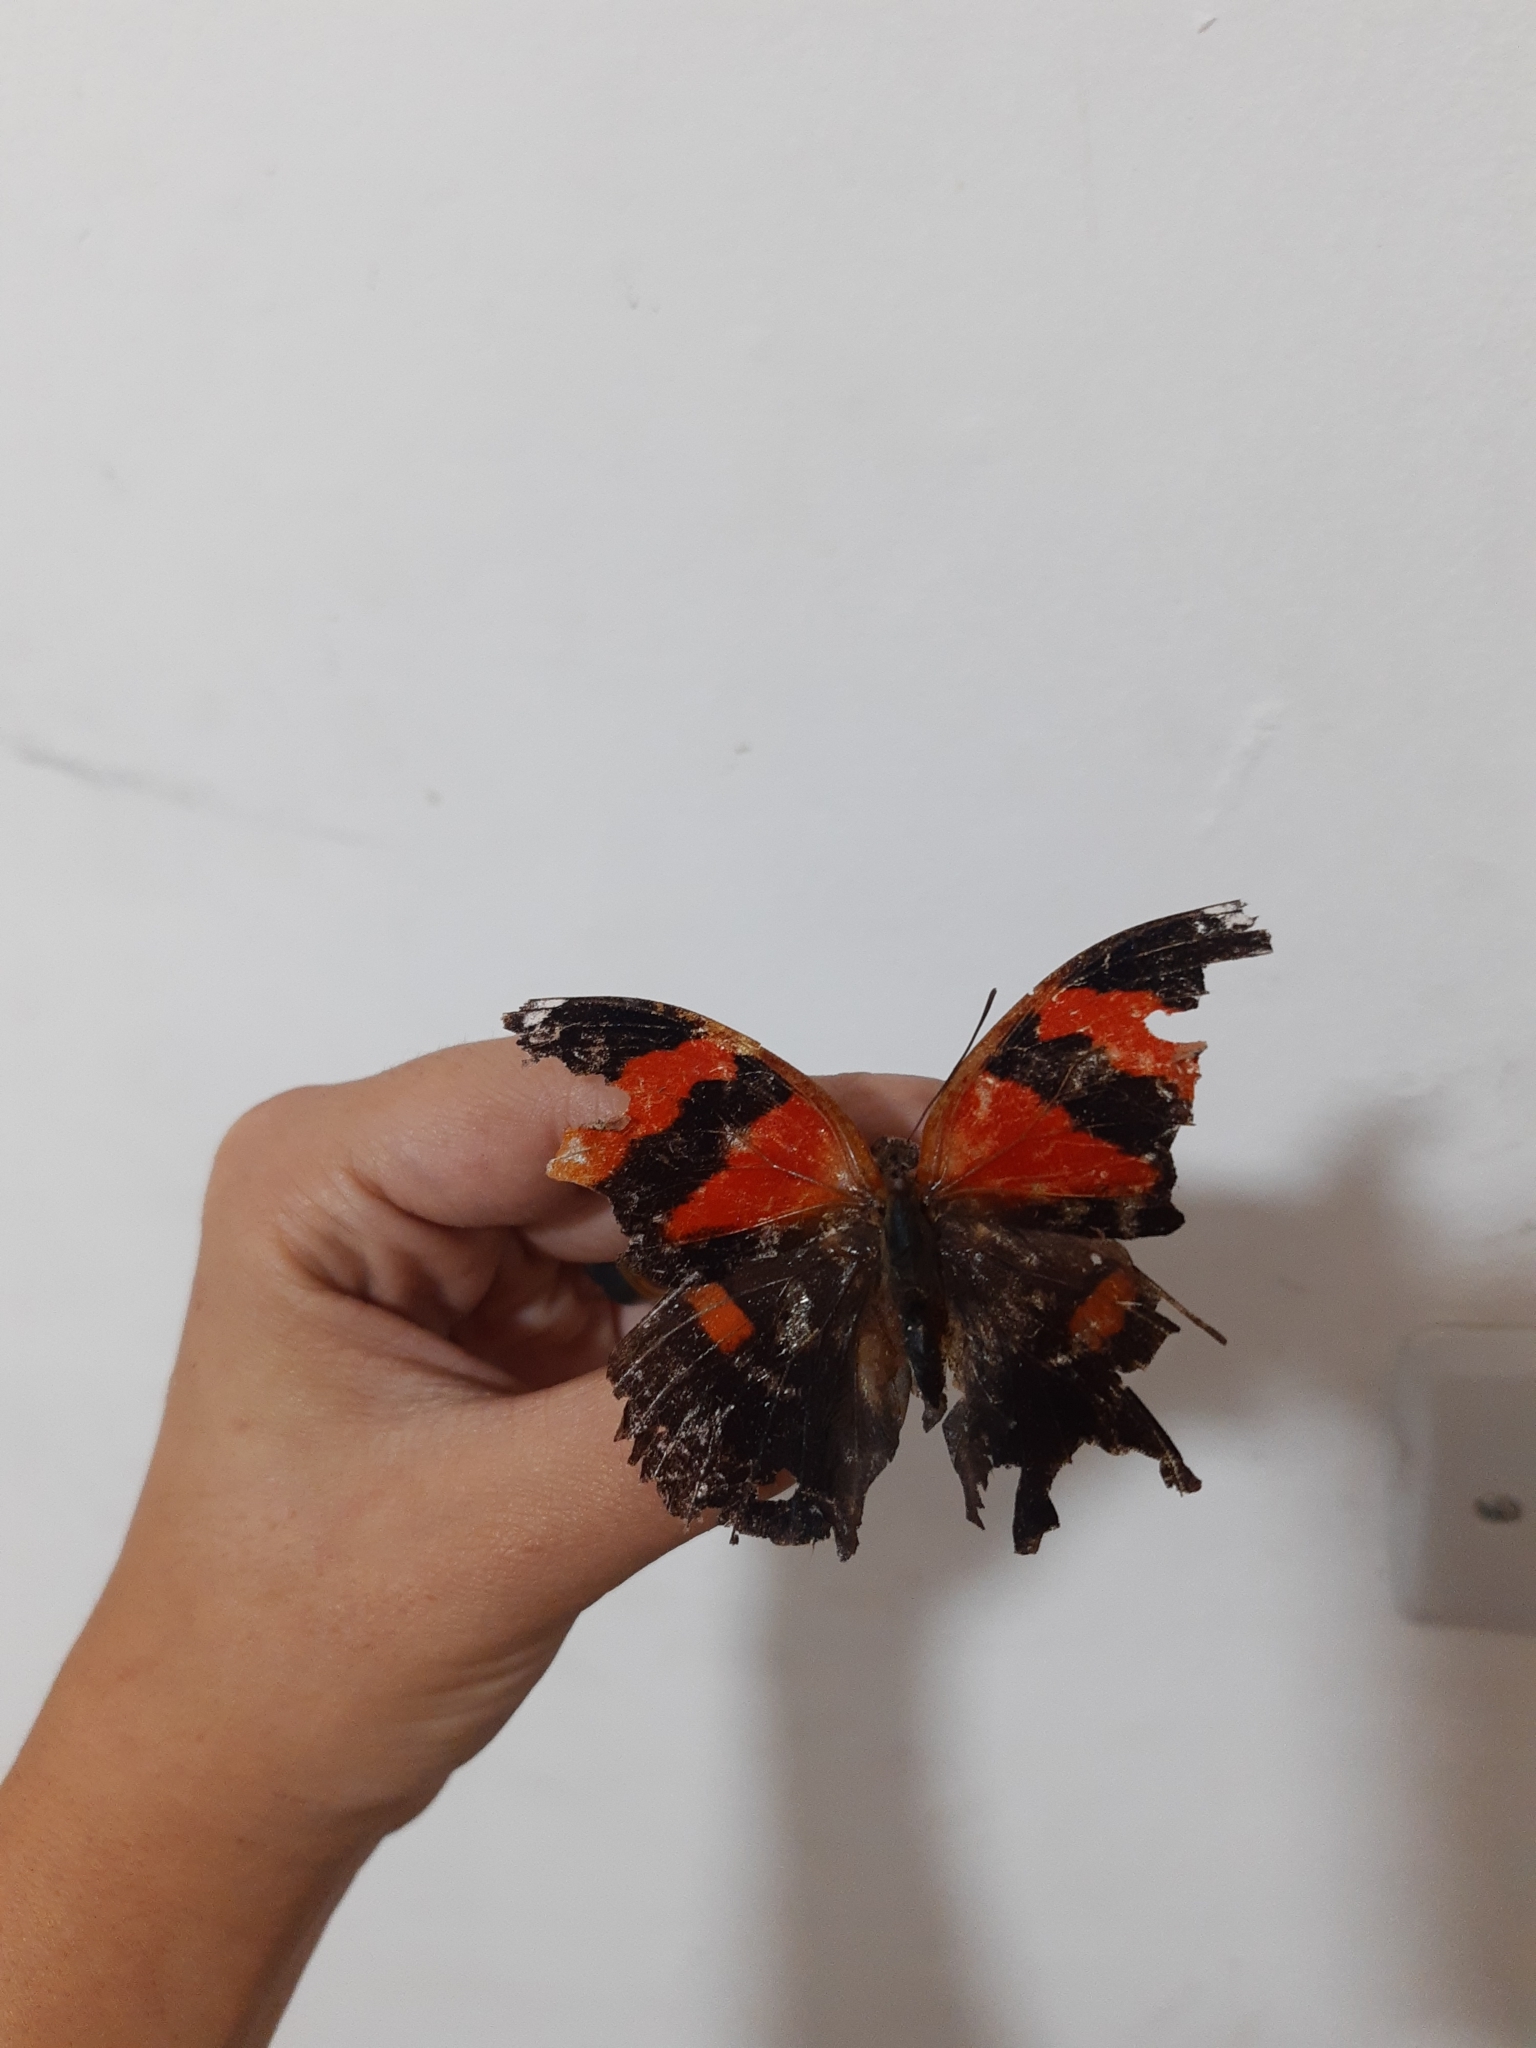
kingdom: Animalia
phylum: Arthropoda
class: Insecta
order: Lepidoptera
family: Nymphalidae
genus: Siderone
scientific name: Siderone galanthis
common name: Red-striped leafwing
